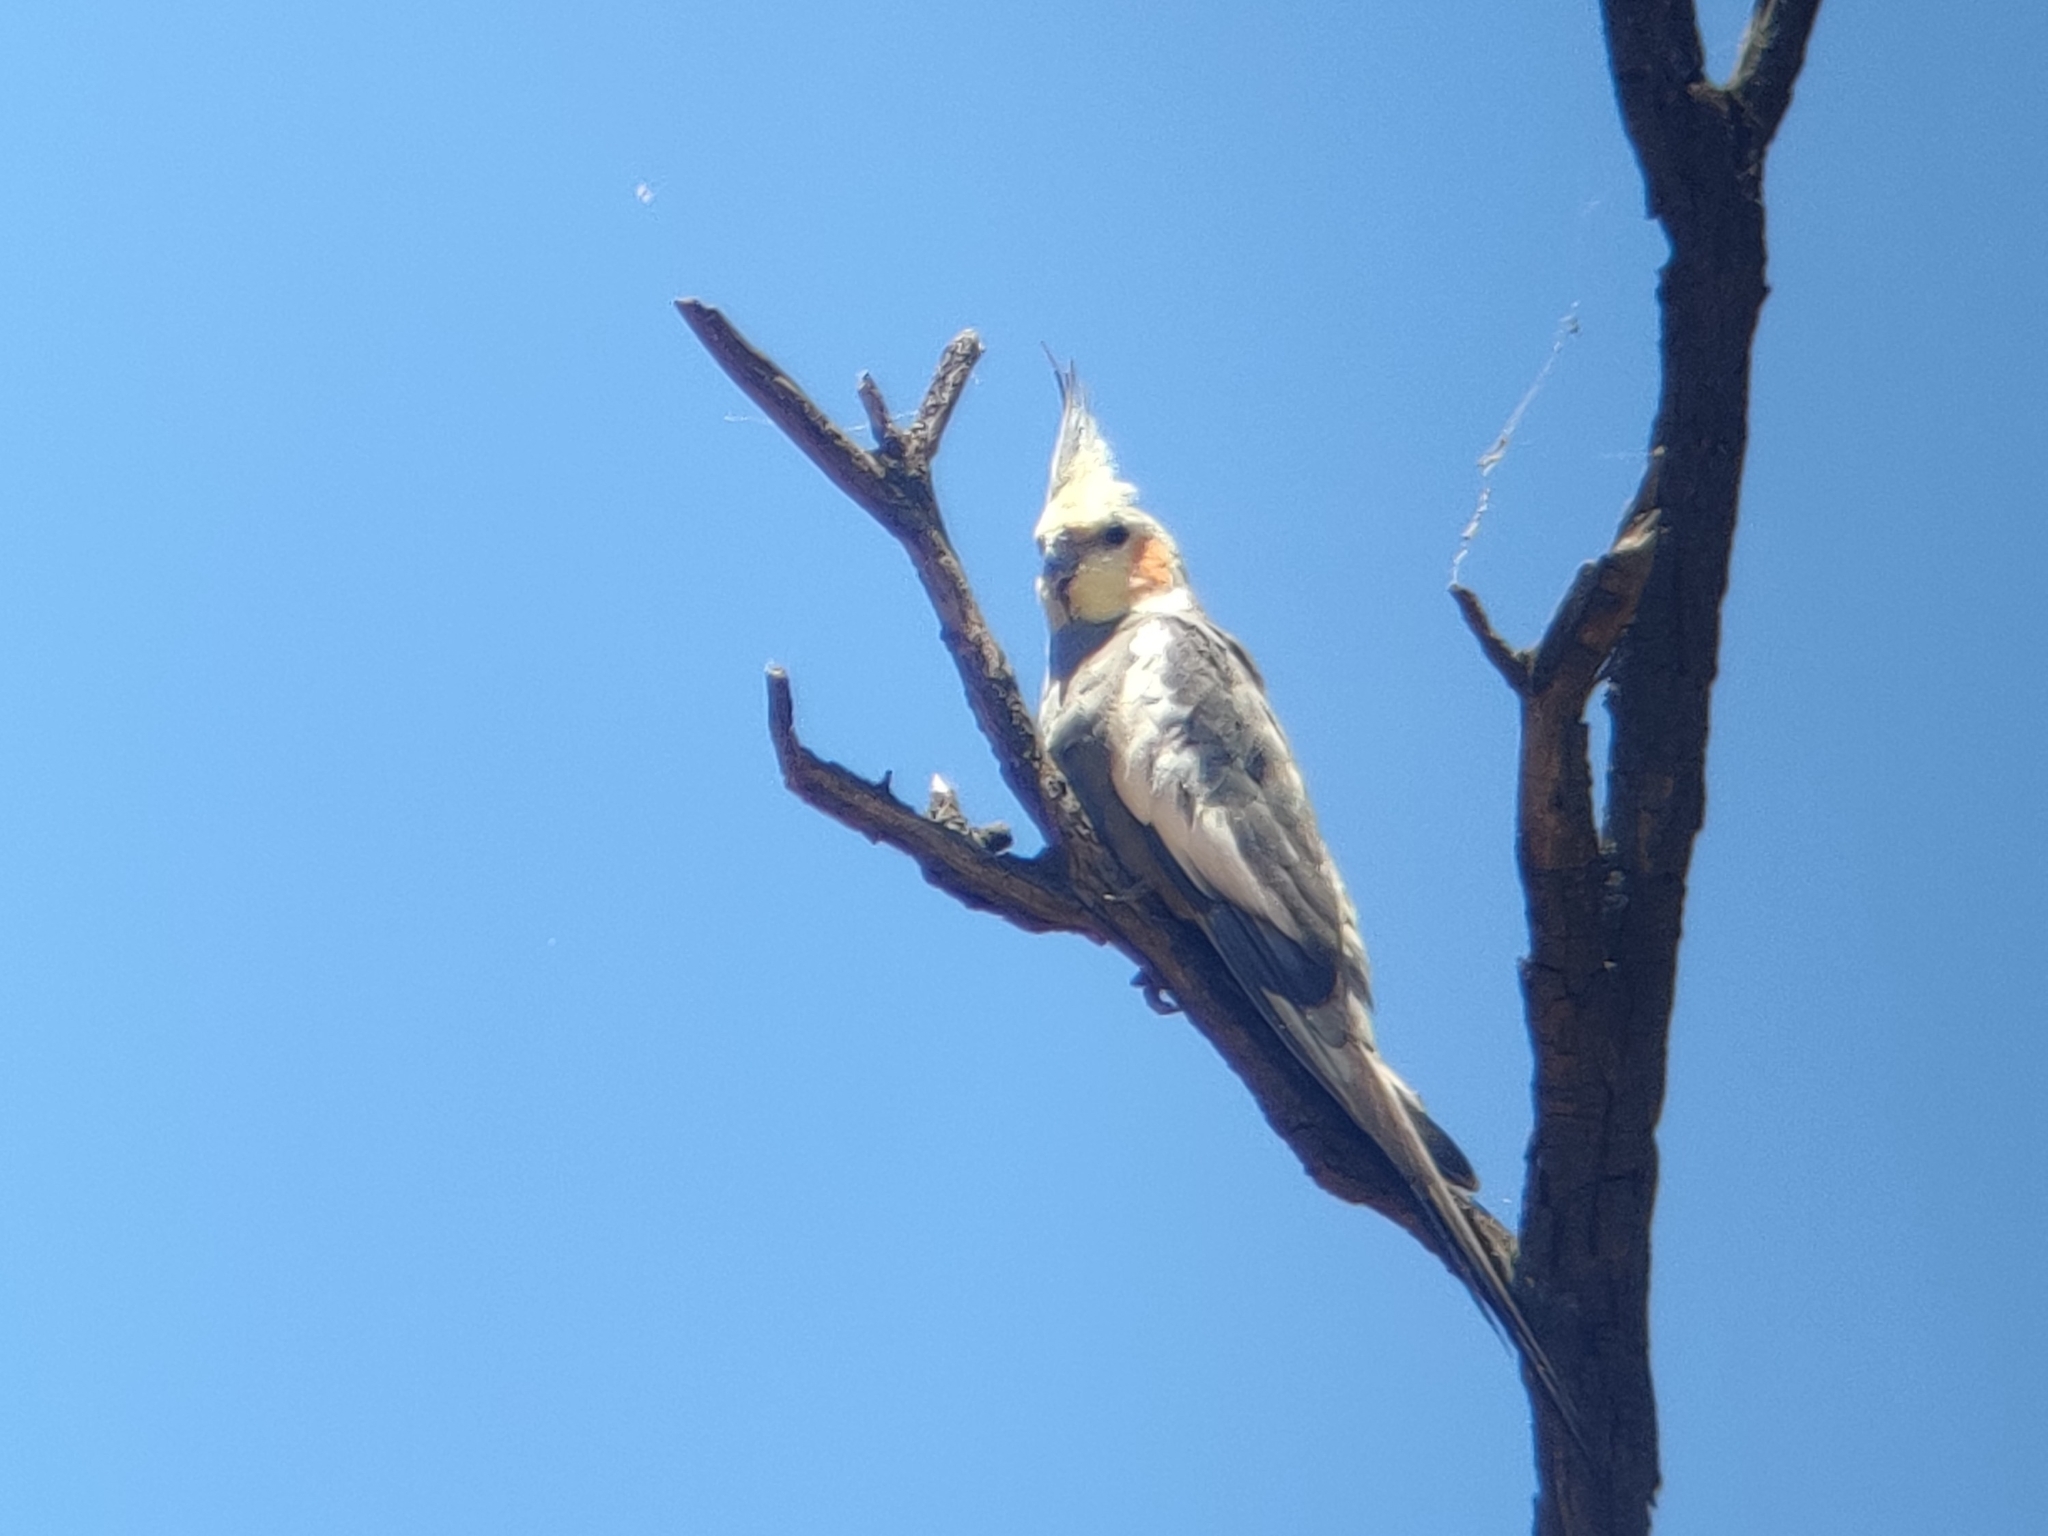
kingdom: Animalia
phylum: Chordata
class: Aves
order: Psittaciformes
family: Psittacidae
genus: Nymphicus
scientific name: Nymphicus hollandicus
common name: Cockatiel
